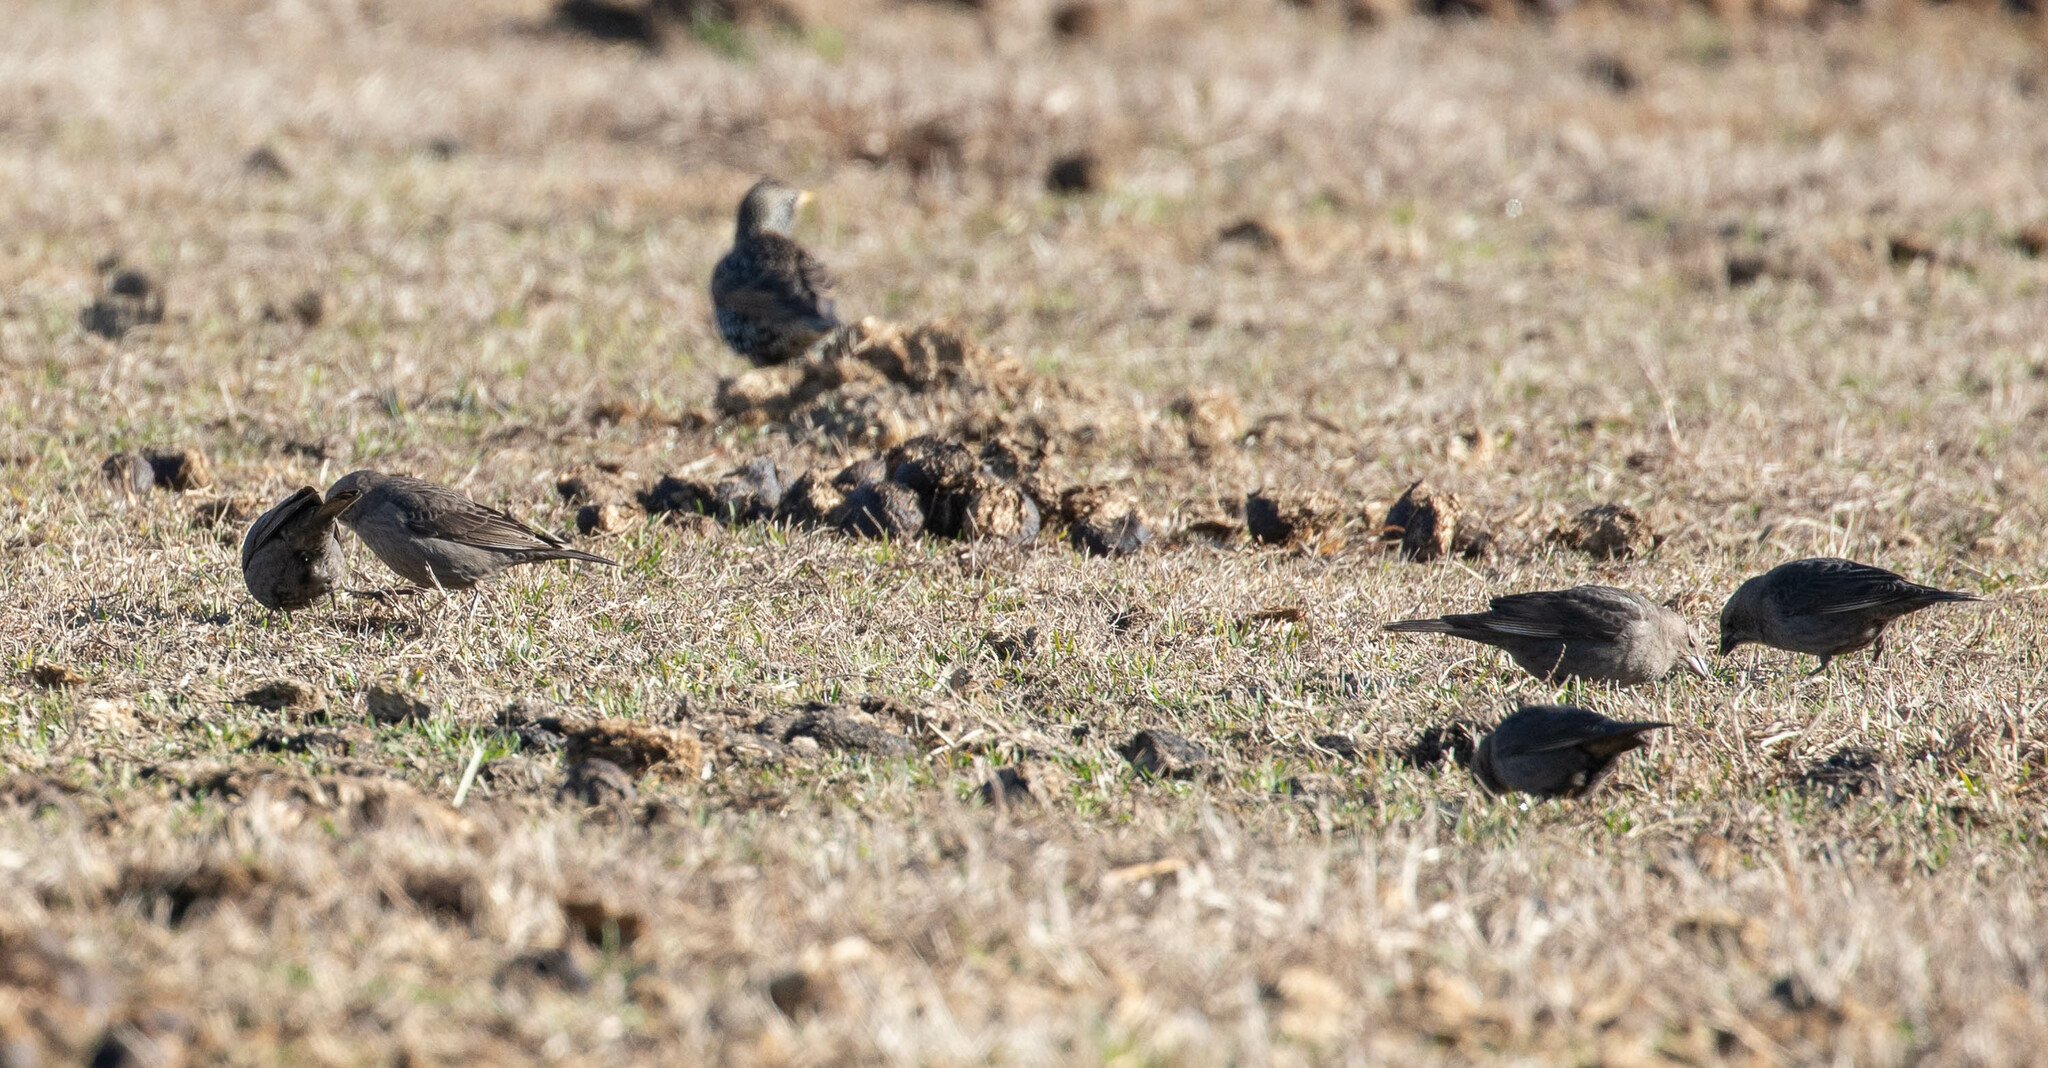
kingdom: Animalia
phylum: Chordata
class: Aves
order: Passeriformes
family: Icteridae
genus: Molothrus
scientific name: Molothrus ater
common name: Brown-headed cowbird
